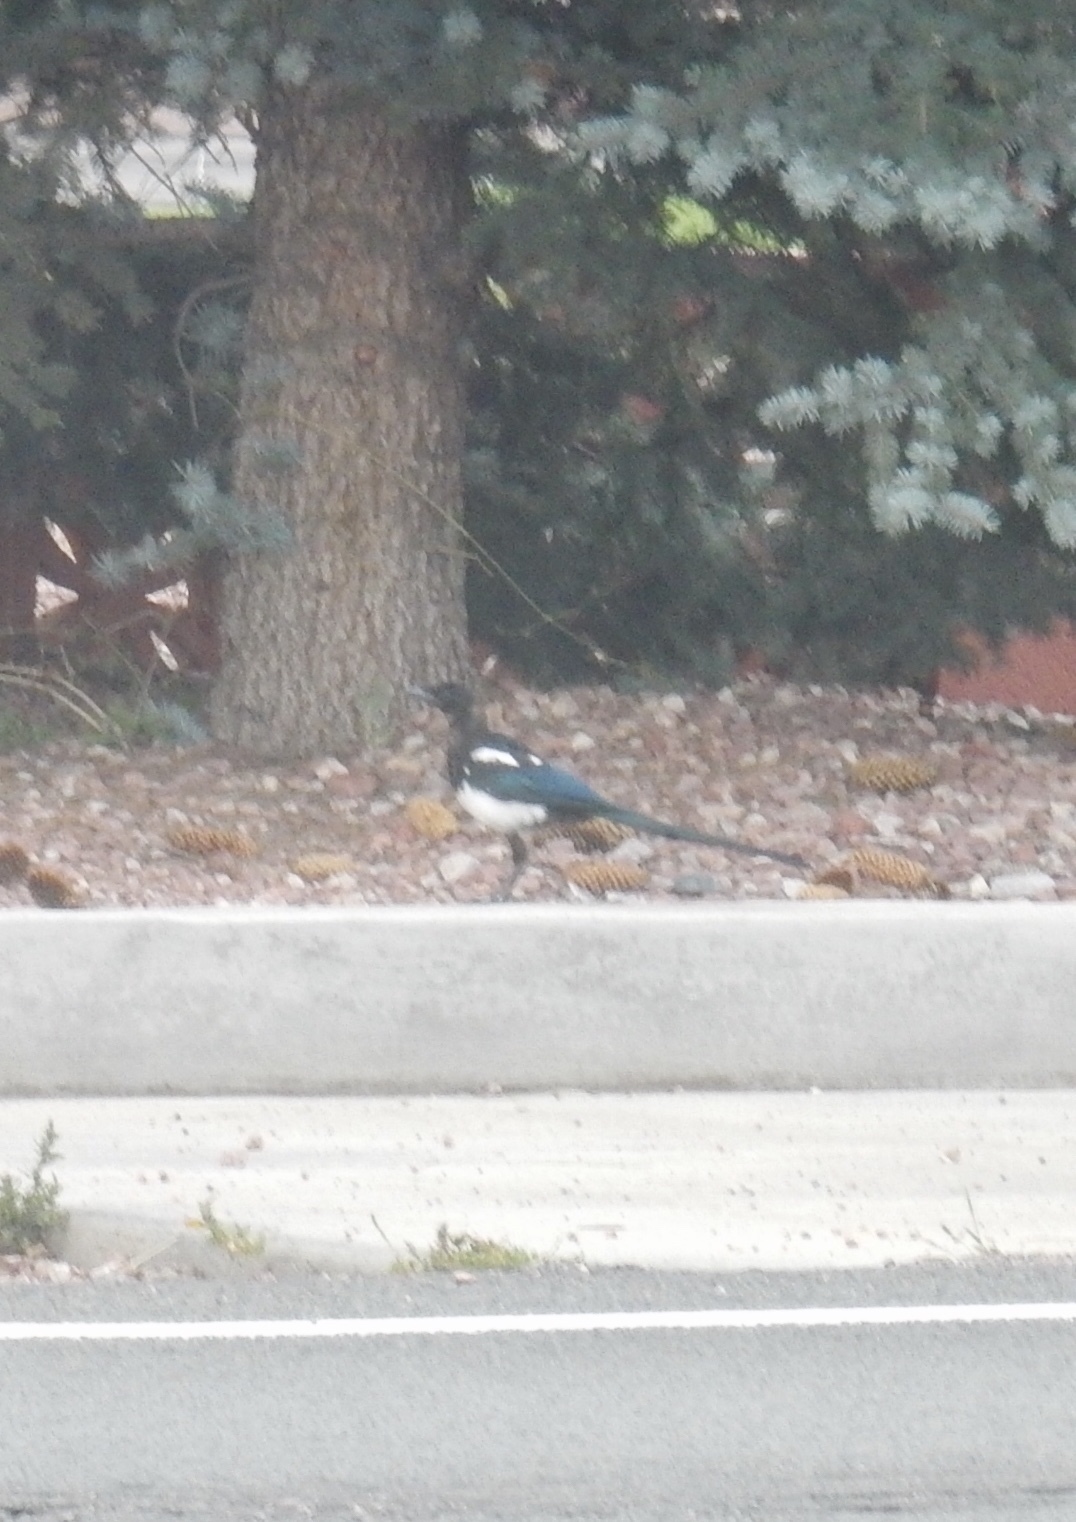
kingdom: Animalia
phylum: Chordata
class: Aves
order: Passeriformes
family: Corvidae
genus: Pica
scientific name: Pica hudsonia
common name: Black-billed magpie
